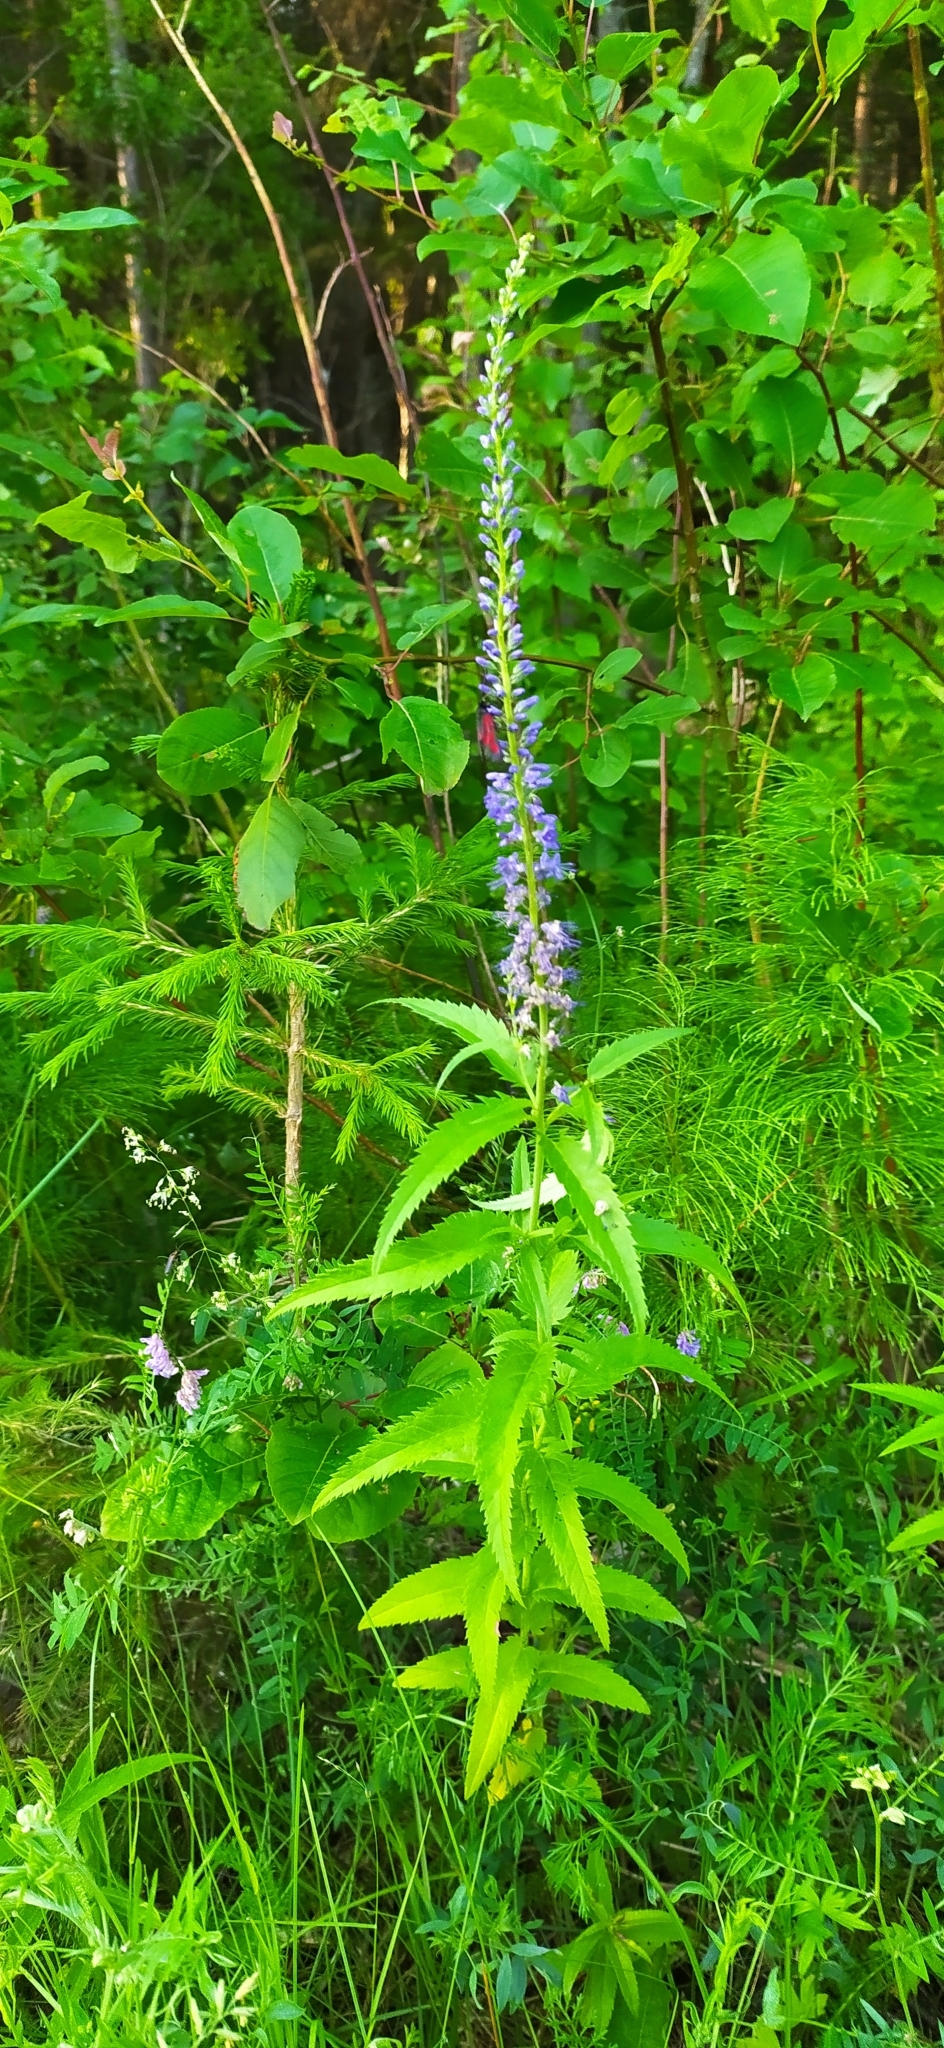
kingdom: Plantae
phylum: Tracheophyta
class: Magnoliopsida
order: Lamiales
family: Plantaginaceae
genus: Veronica
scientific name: Veronica longifolia
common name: Garden speedwell
